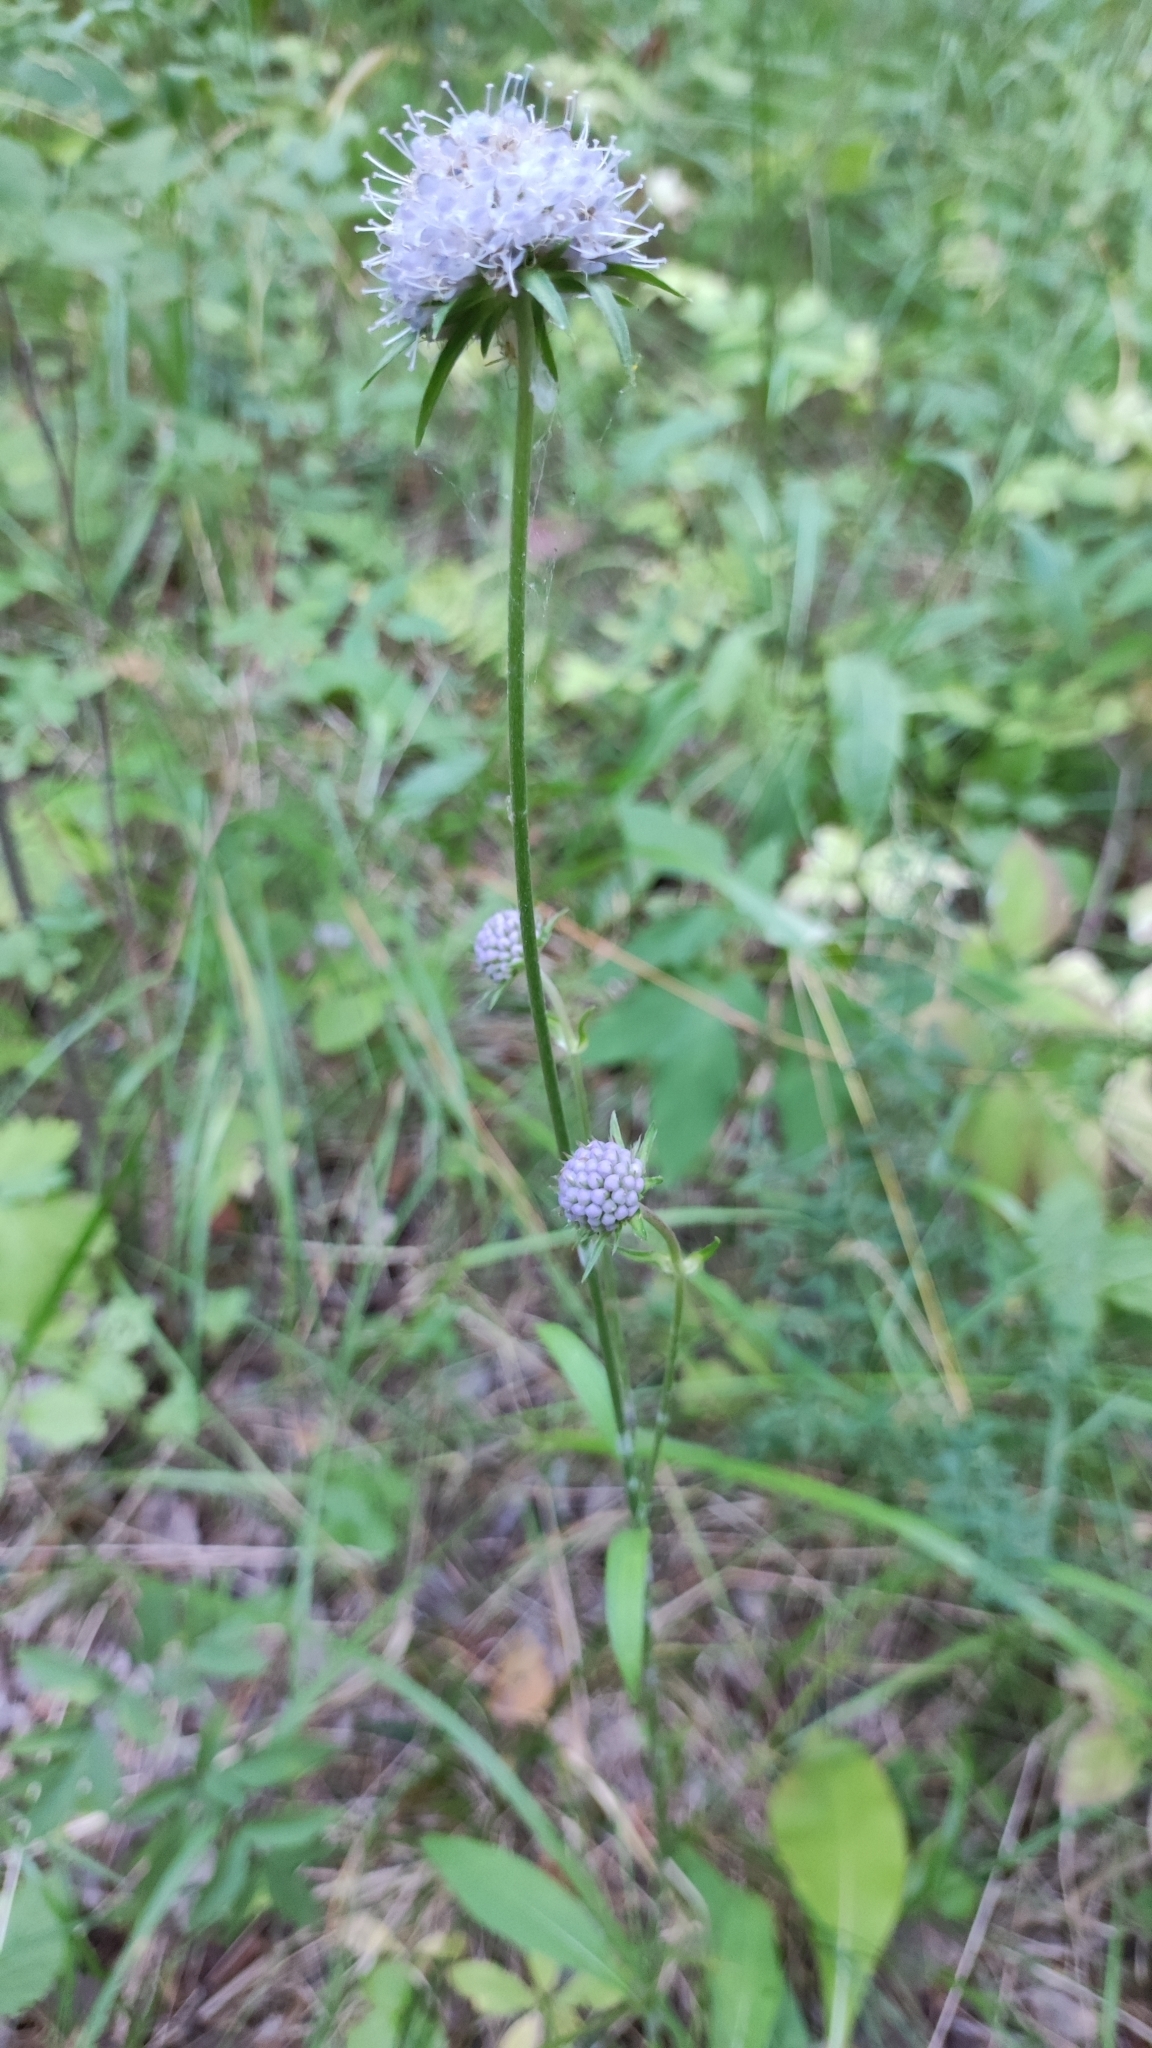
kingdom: Plantae
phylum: Tracheophyta
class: Magnoliopsida
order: Dipsacales
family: Caprifoliaceae
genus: Succisa
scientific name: Succisa pratensis
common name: Devil's-bit
